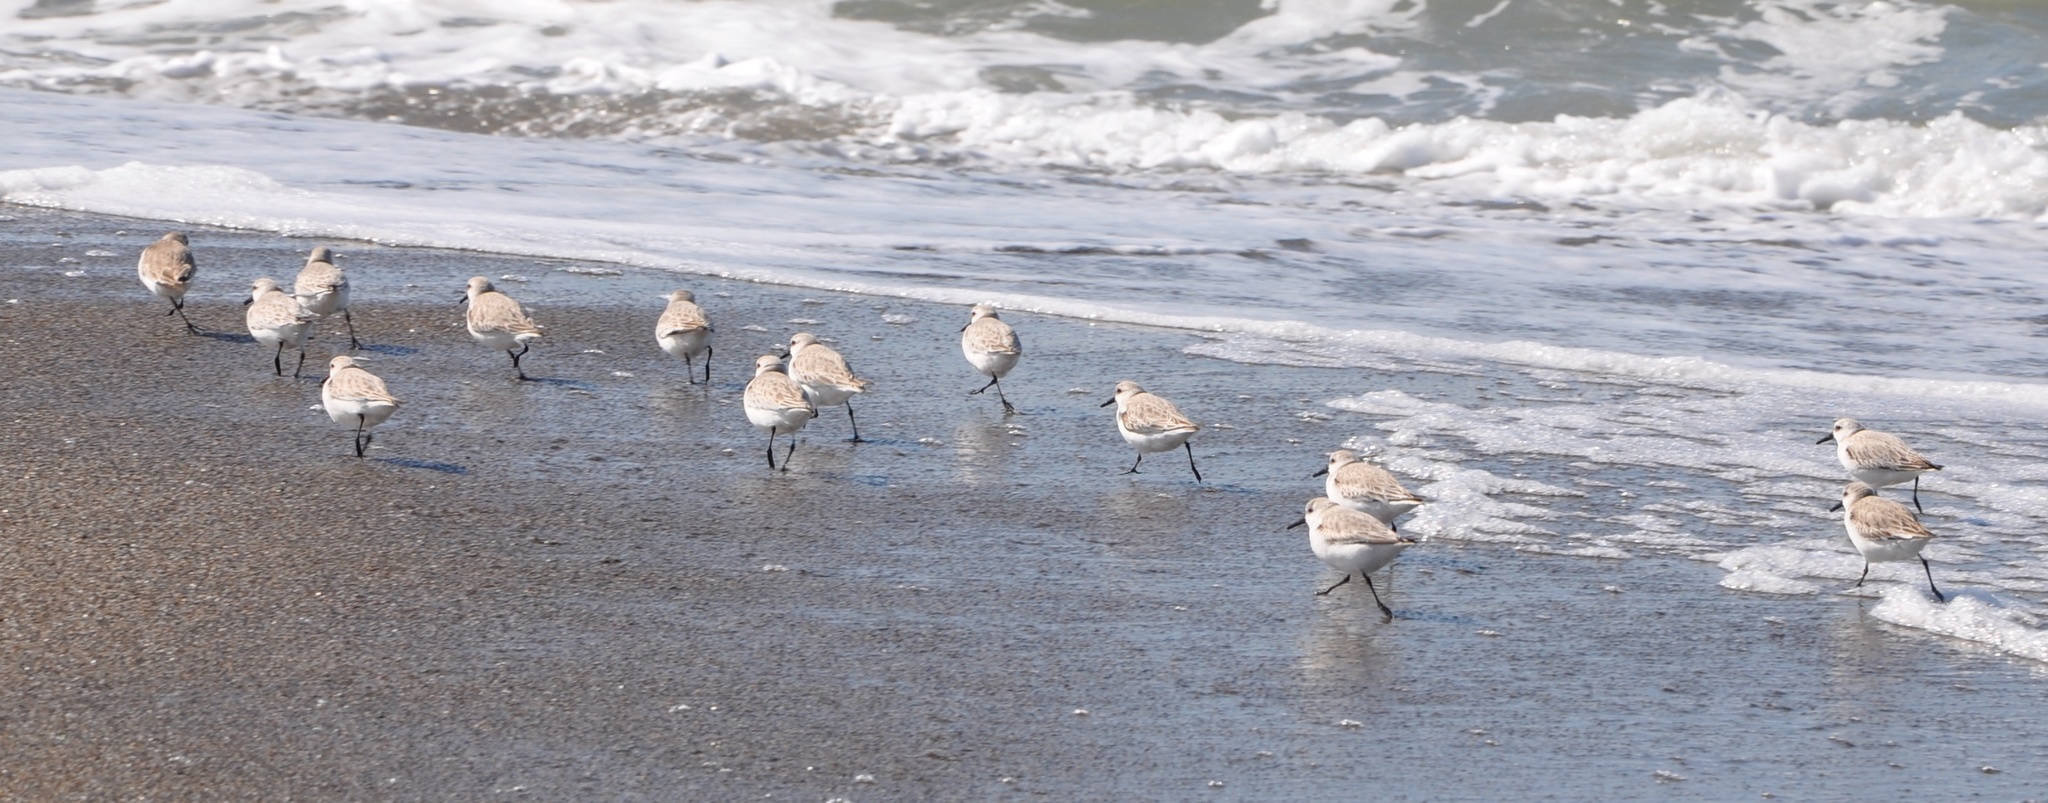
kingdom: Animalia
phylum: Chordata
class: Aves
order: Charadriiformes
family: Scolopacidae
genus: Calidris
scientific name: Calidris alba
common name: Sanderling
